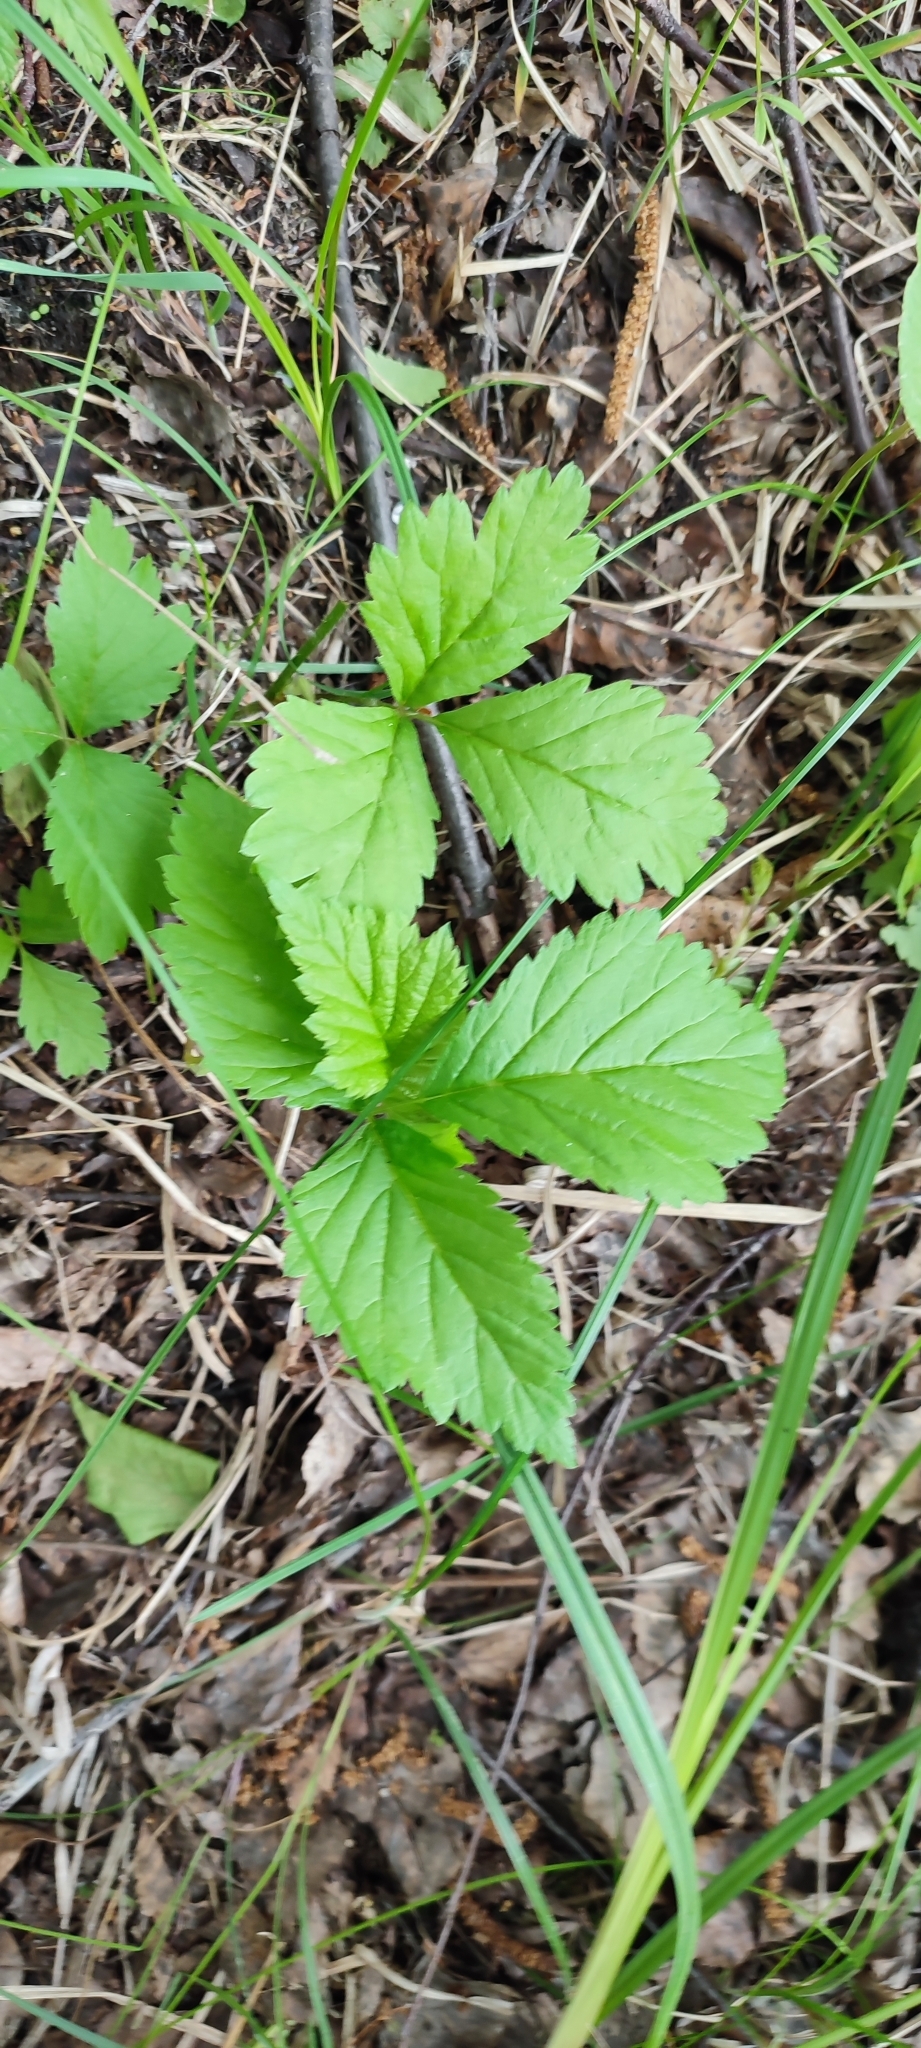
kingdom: Plantae
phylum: Tracheophyta
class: Magnoliopsida
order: Rosales
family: Rosaceae
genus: Rubus
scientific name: Rubus saxatilis
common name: Stone bramble
